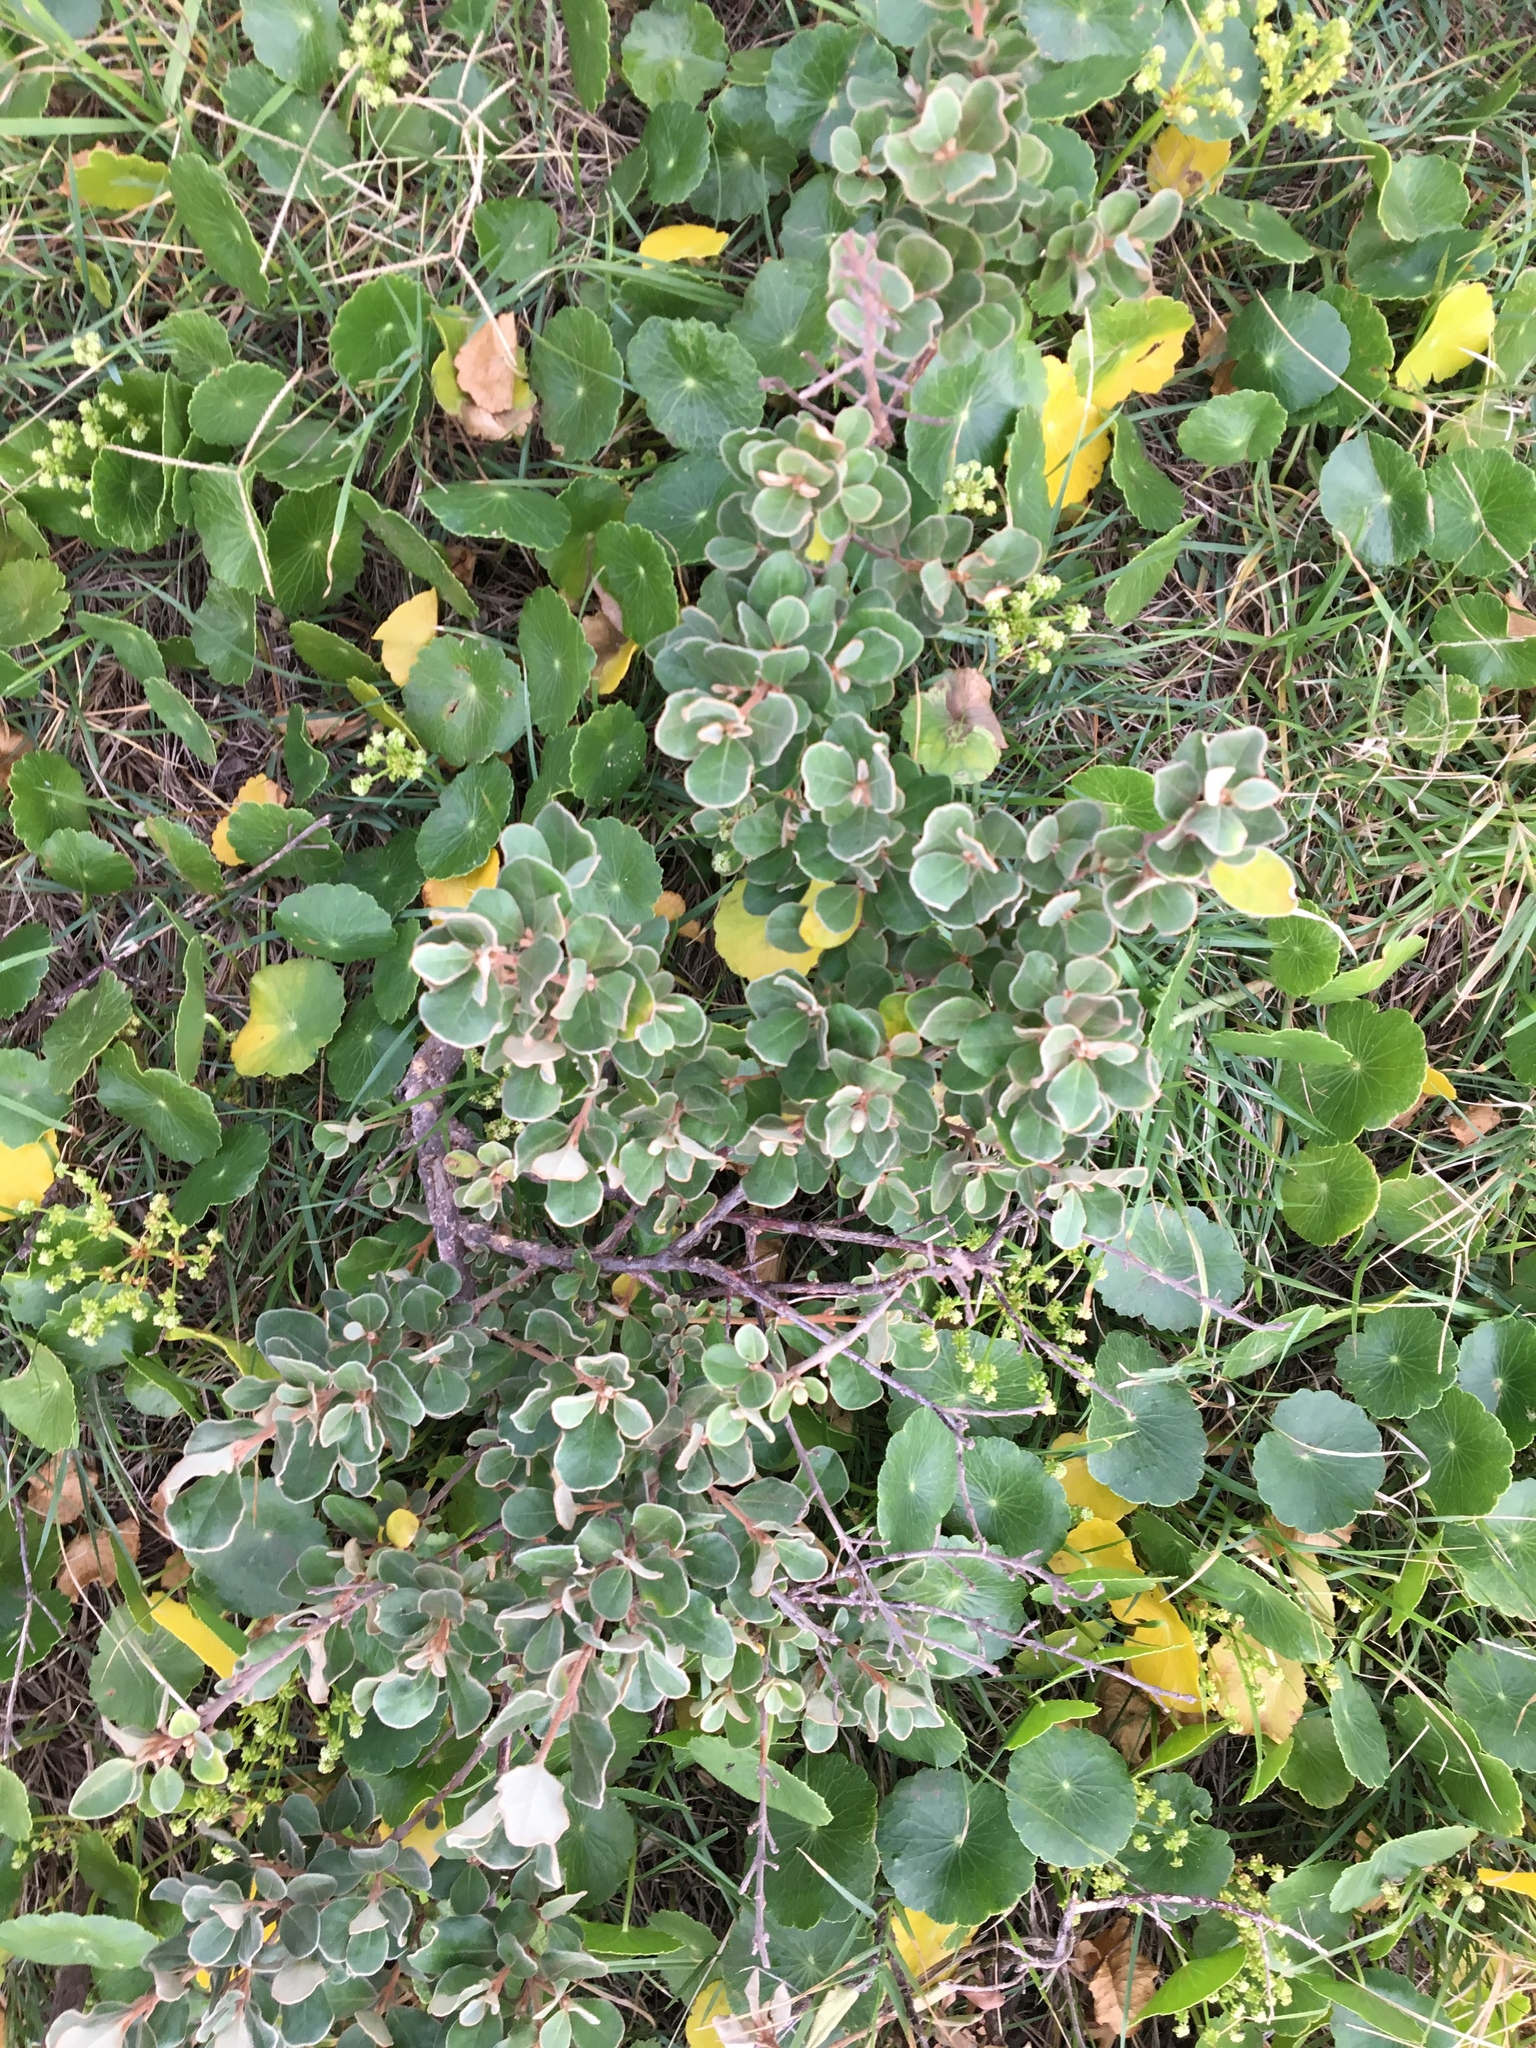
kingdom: Plantae
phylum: Tracheophyta
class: Magnoliopsida
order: Sapindales
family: Rutaceae
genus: Correa
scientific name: Correa alba
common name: White correa
